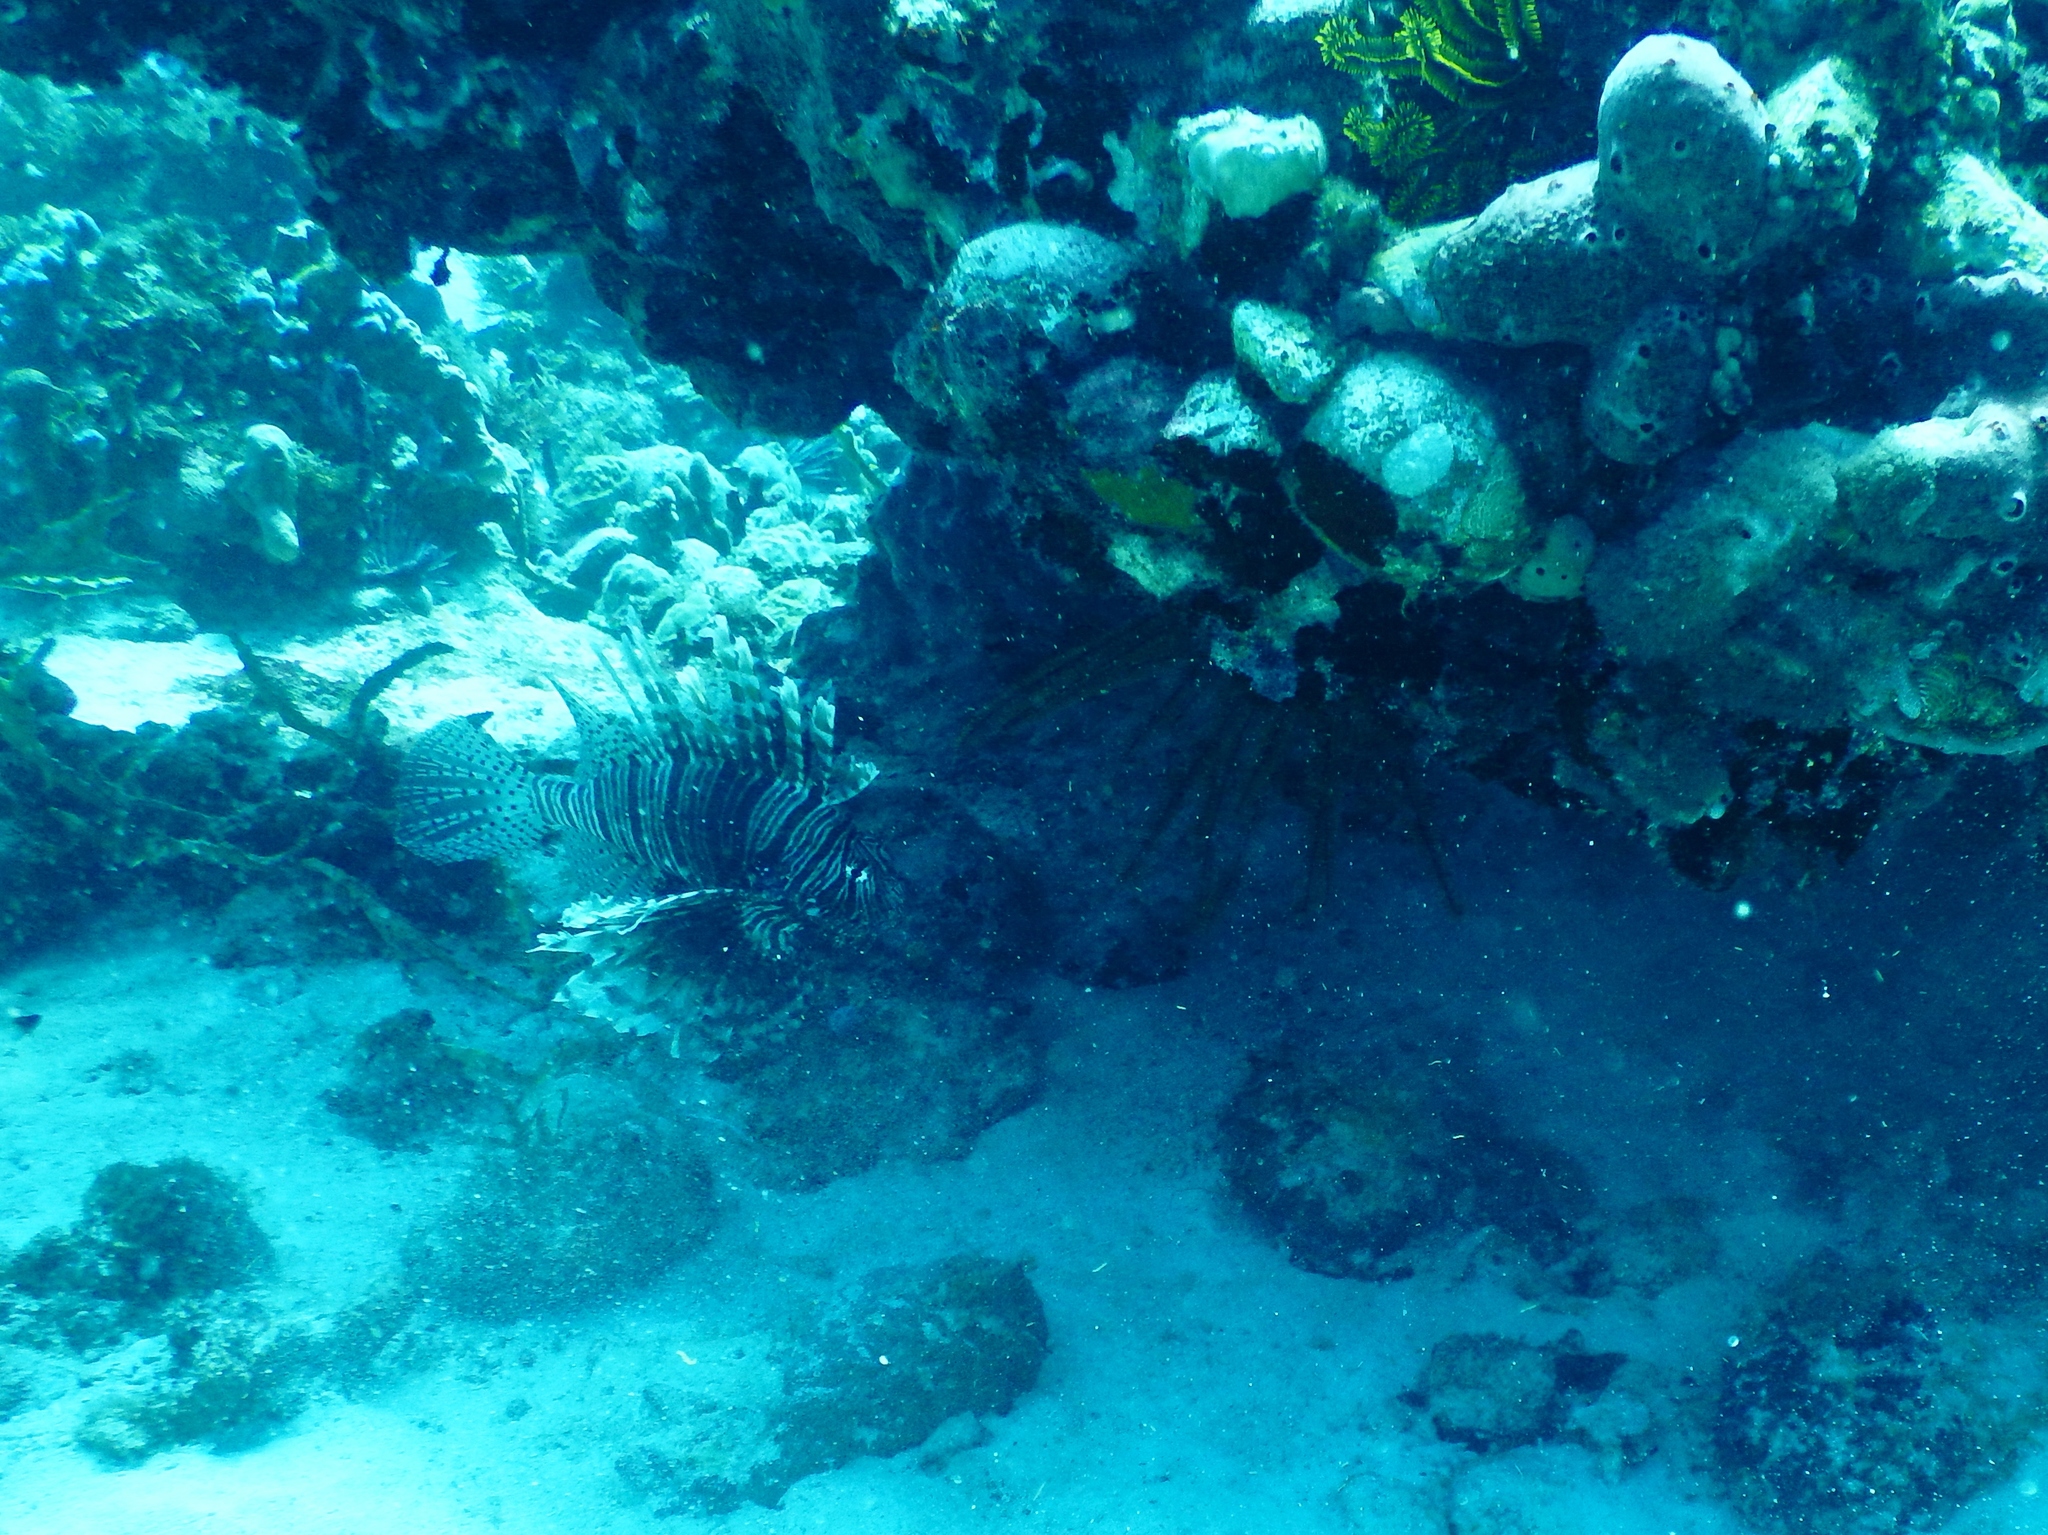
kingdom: Animalia
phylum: Chordata
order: Scorpaeniformes
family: Scorpaenidae
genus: Pterois
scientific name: Pterois volitans
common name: Lionfish
